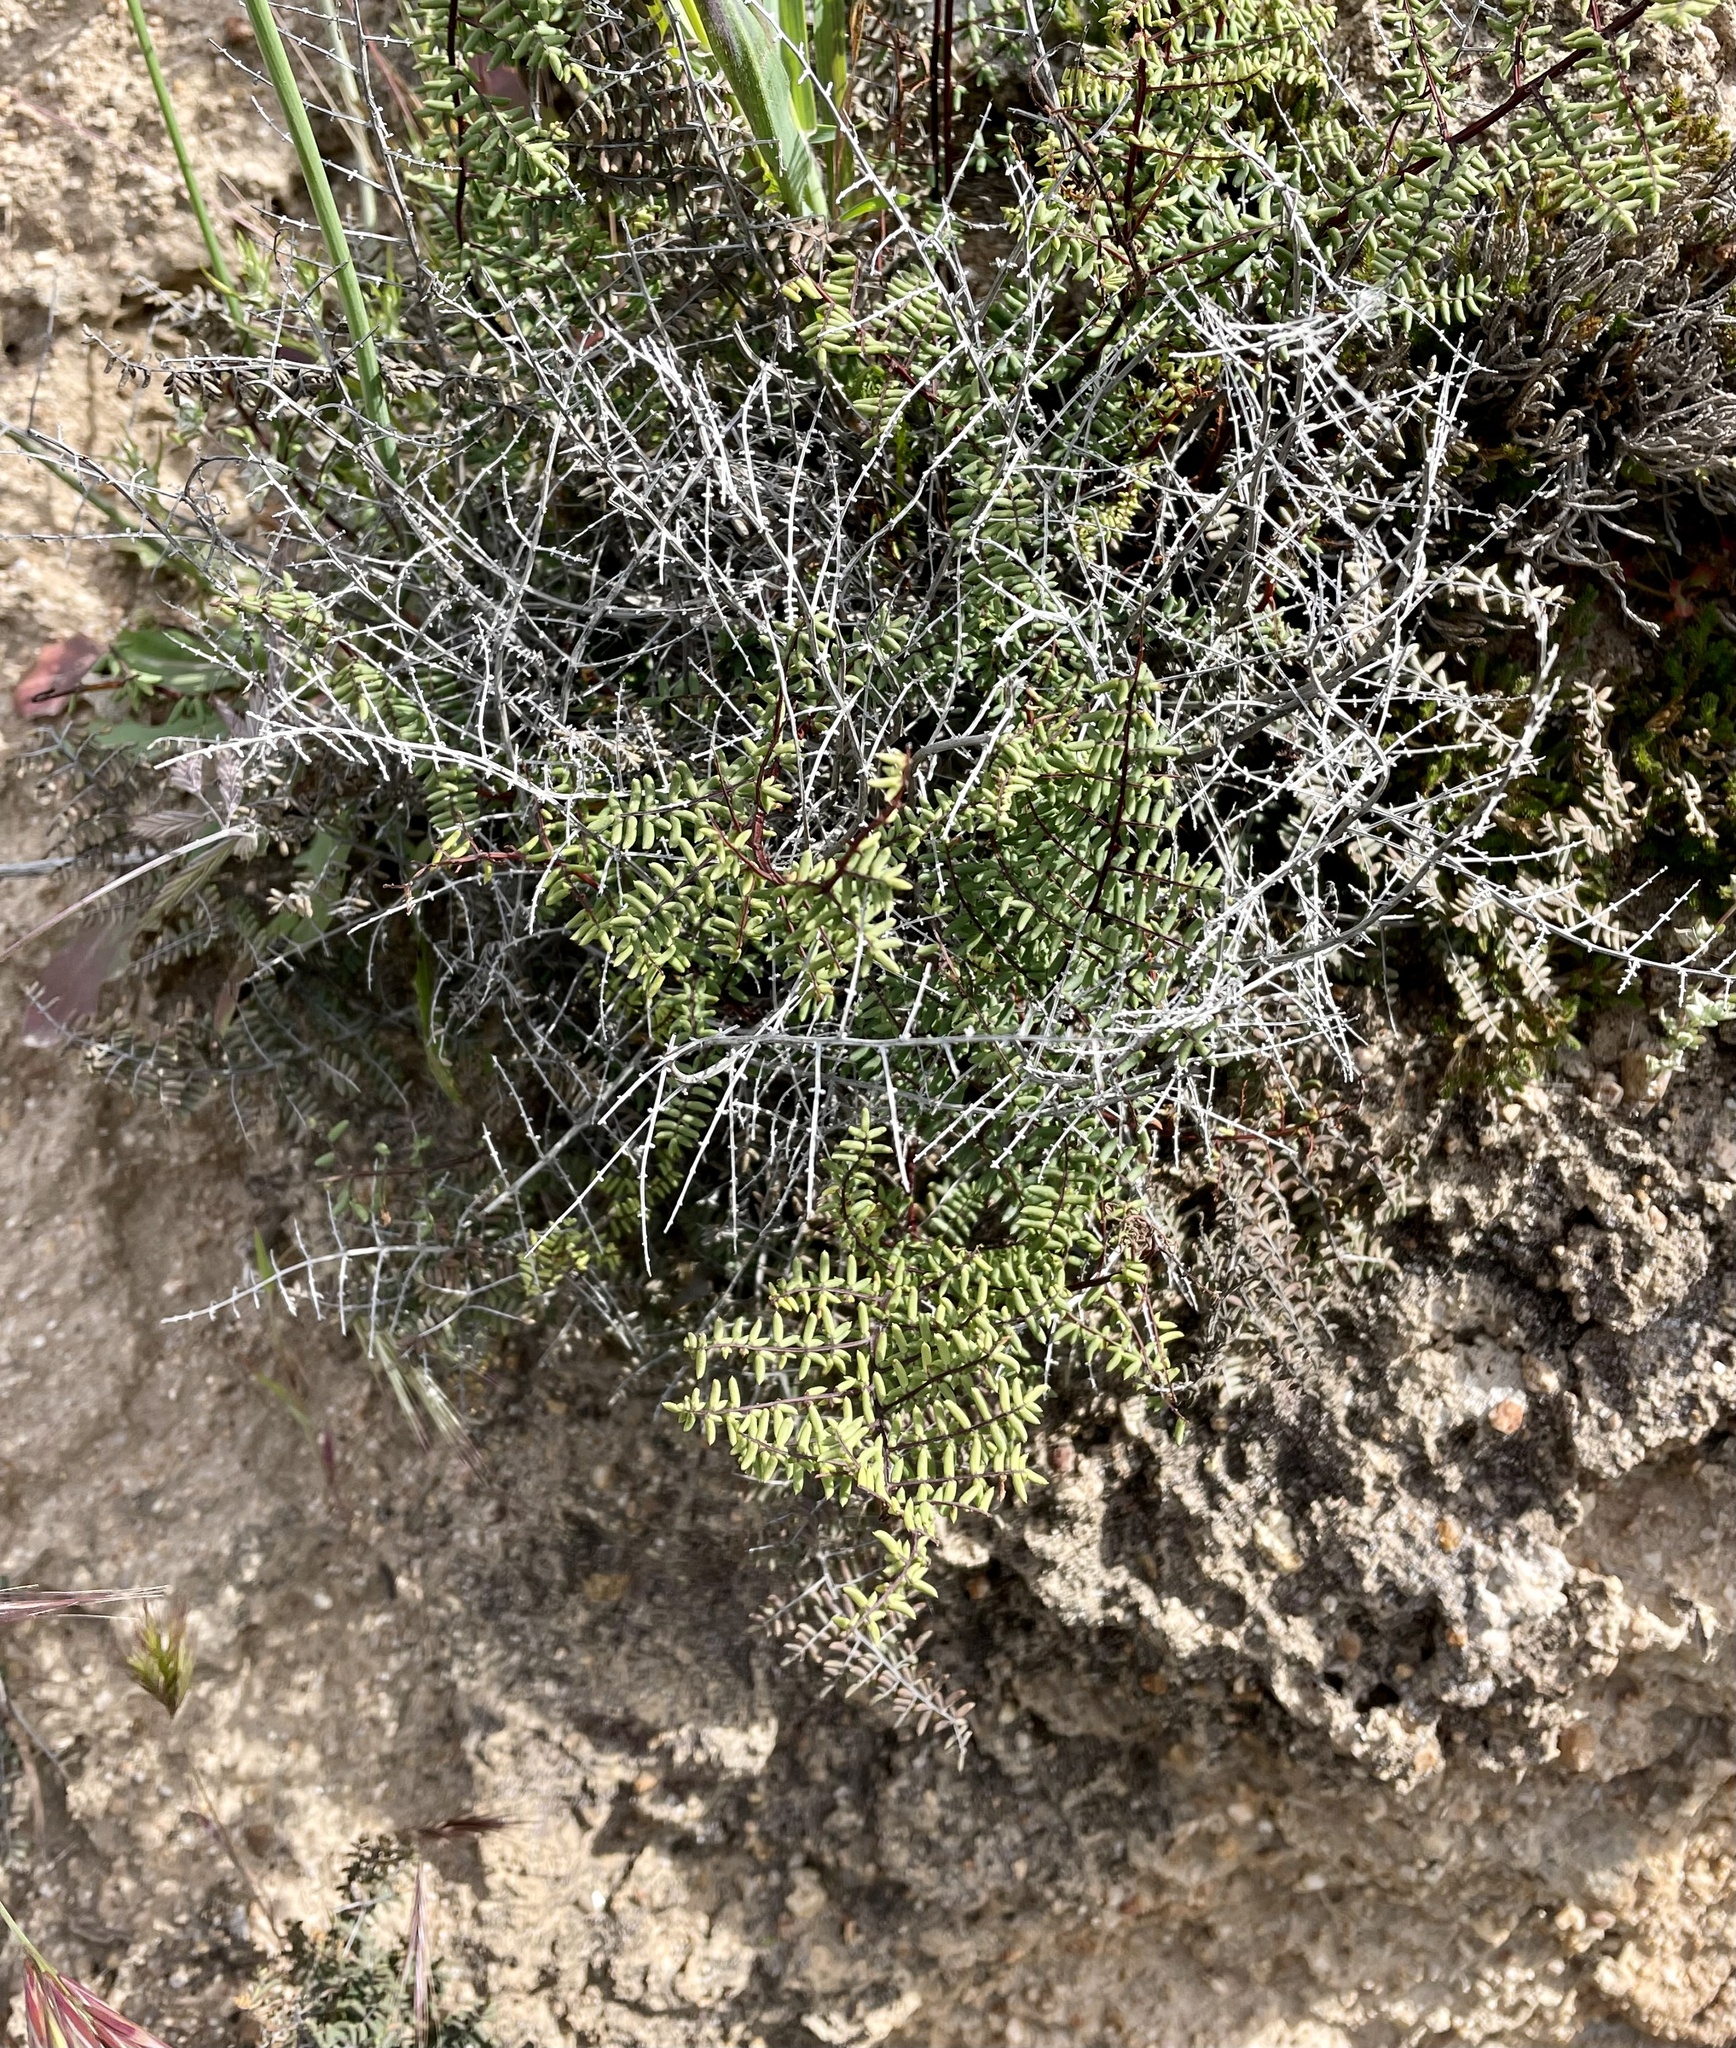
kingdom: Plantae
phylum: Tracheophyta
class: Polypodiopsida
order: Polypodiales
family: Pteridaceae
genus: Pellaea
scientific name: Pellaea mucronata
